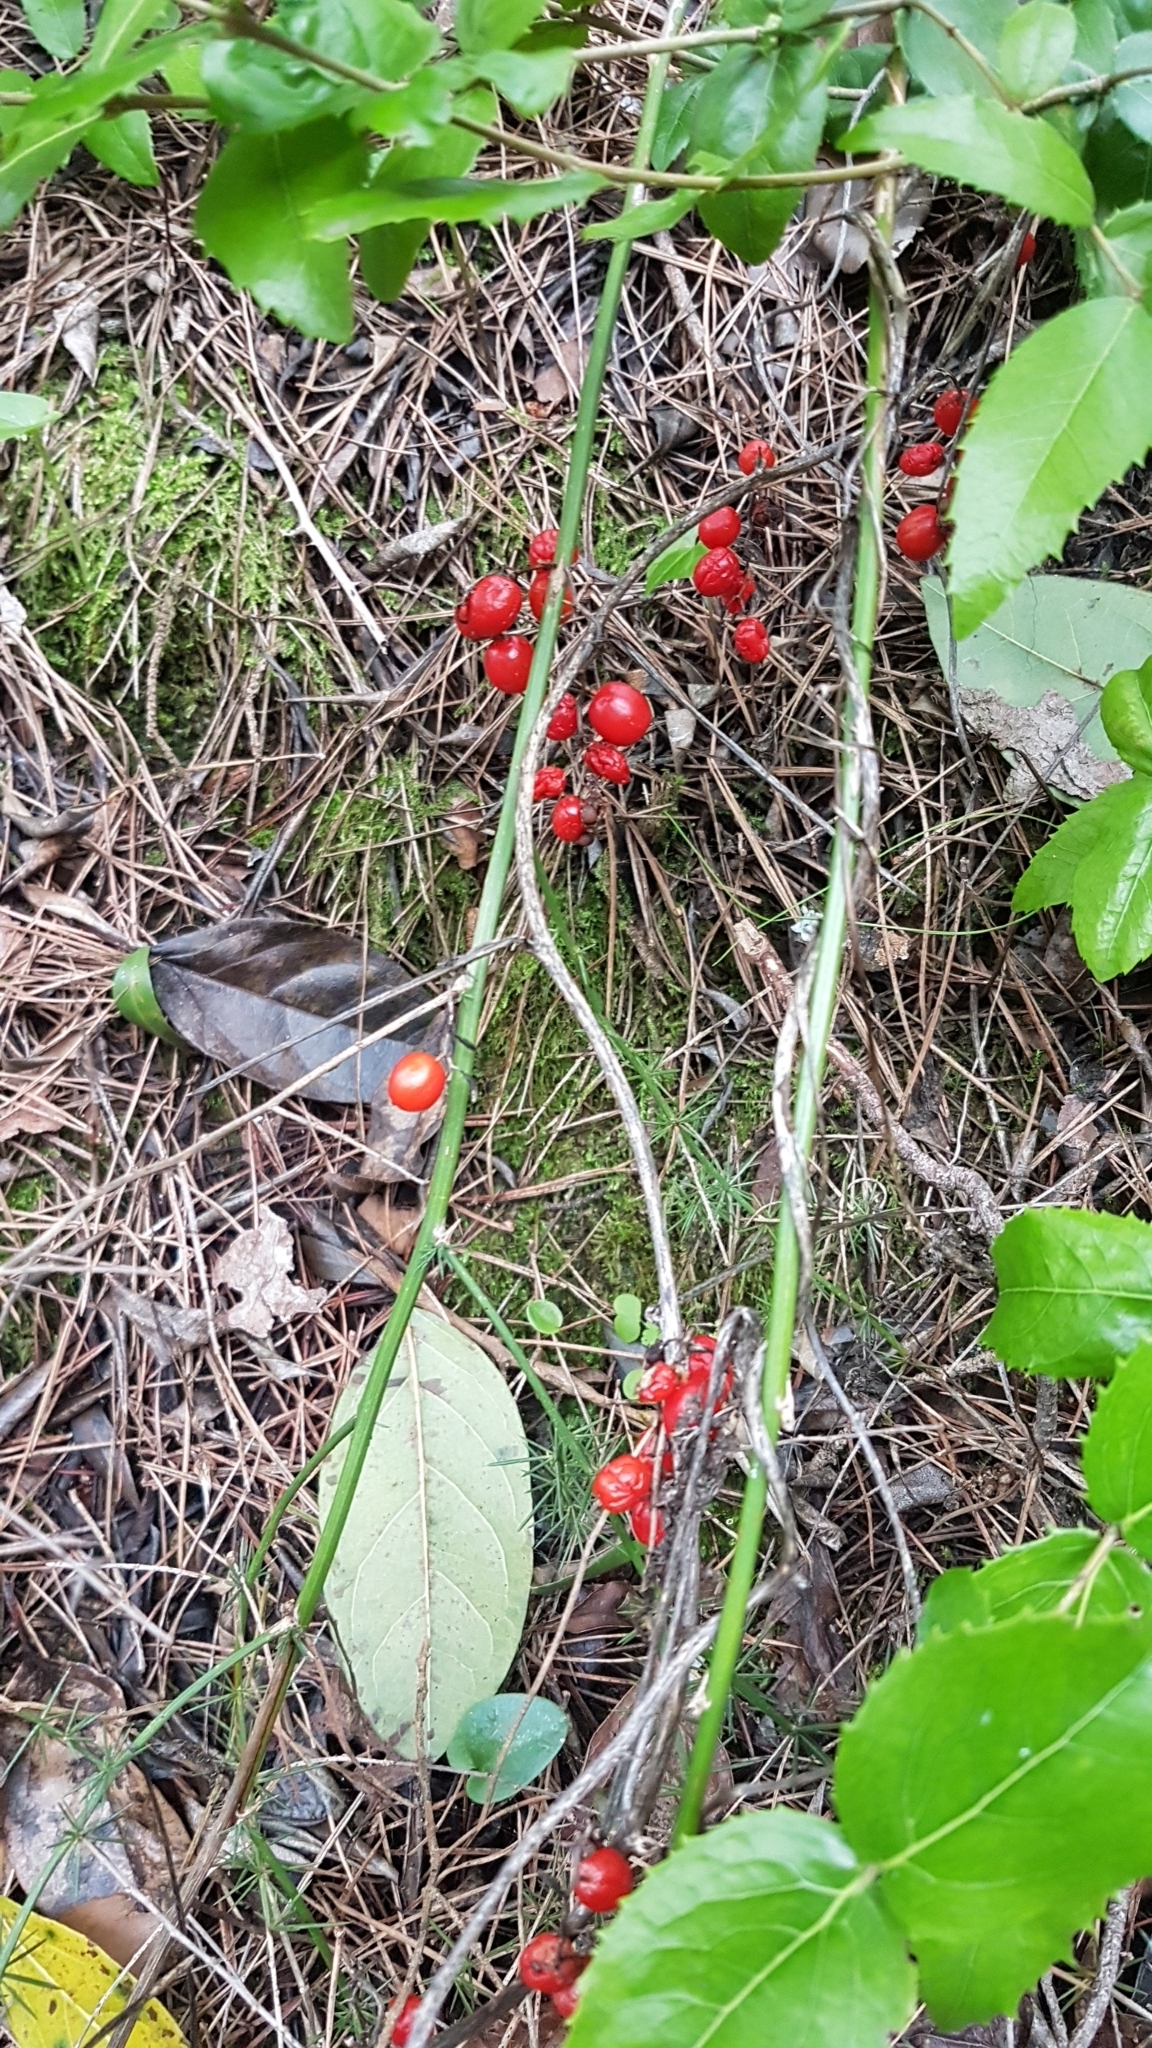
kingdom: Plantae
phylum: Tracheophyta
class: Liliopsida
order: Dioscoreales
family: Dioscoreaceae
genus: Dioscorea
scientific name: Dioscorea communis
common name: Black-bindweed
